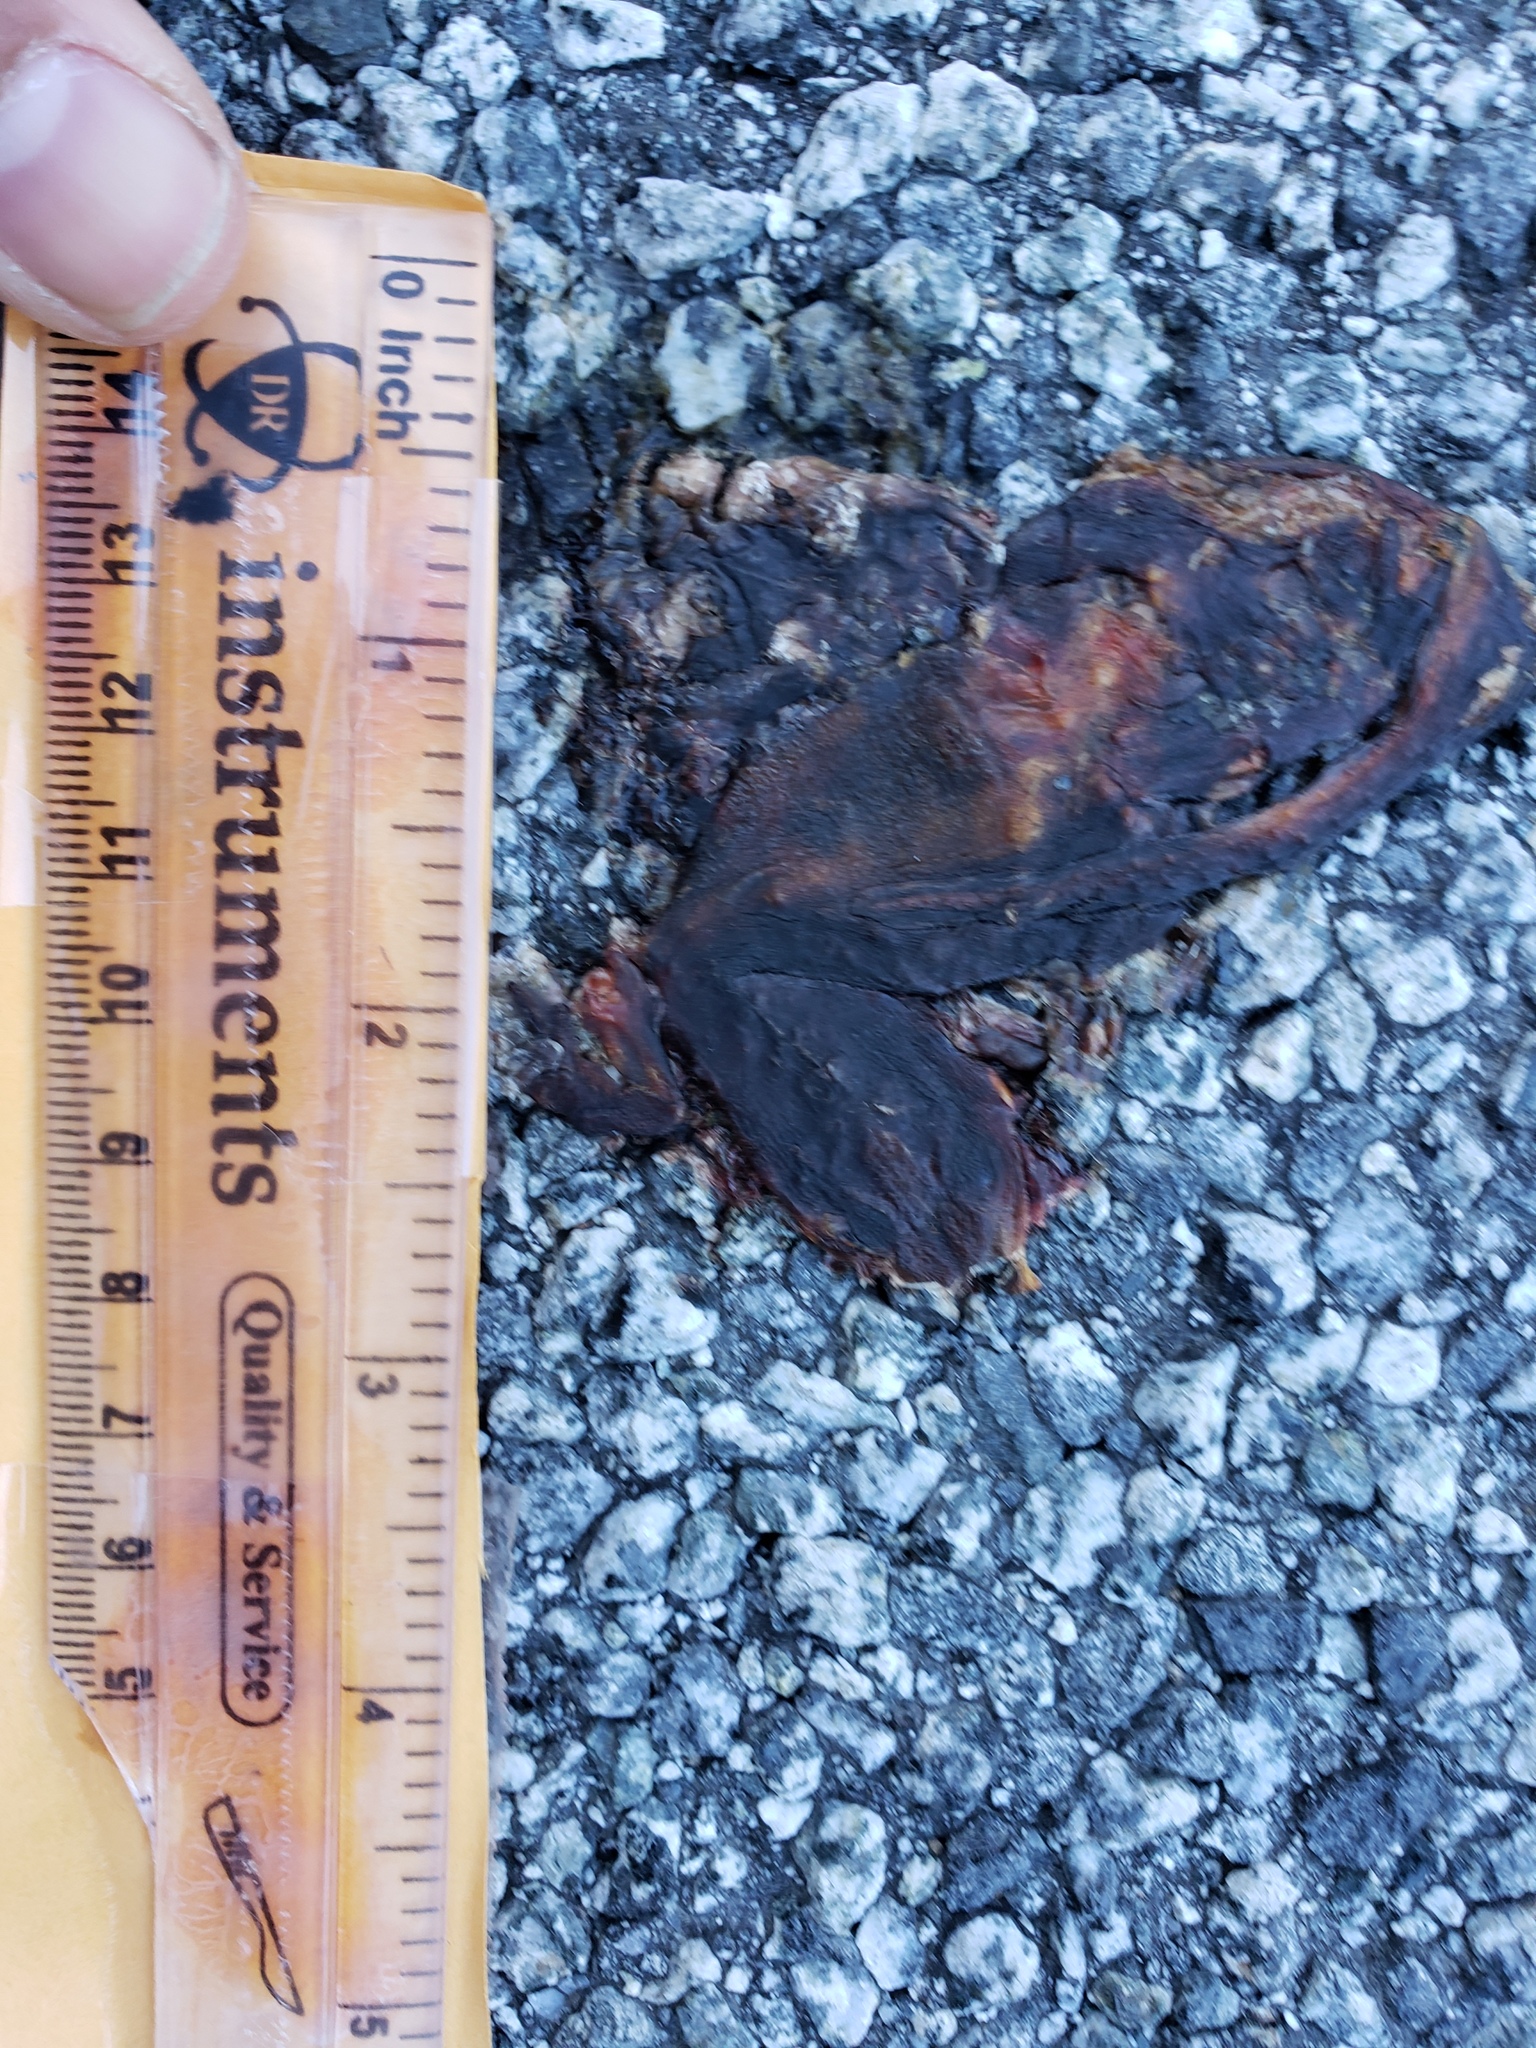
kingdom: Animalia
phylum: Chordata
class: Amphibia
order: Caudata
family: Salamandridae
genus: Taricha
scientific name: Taricha
